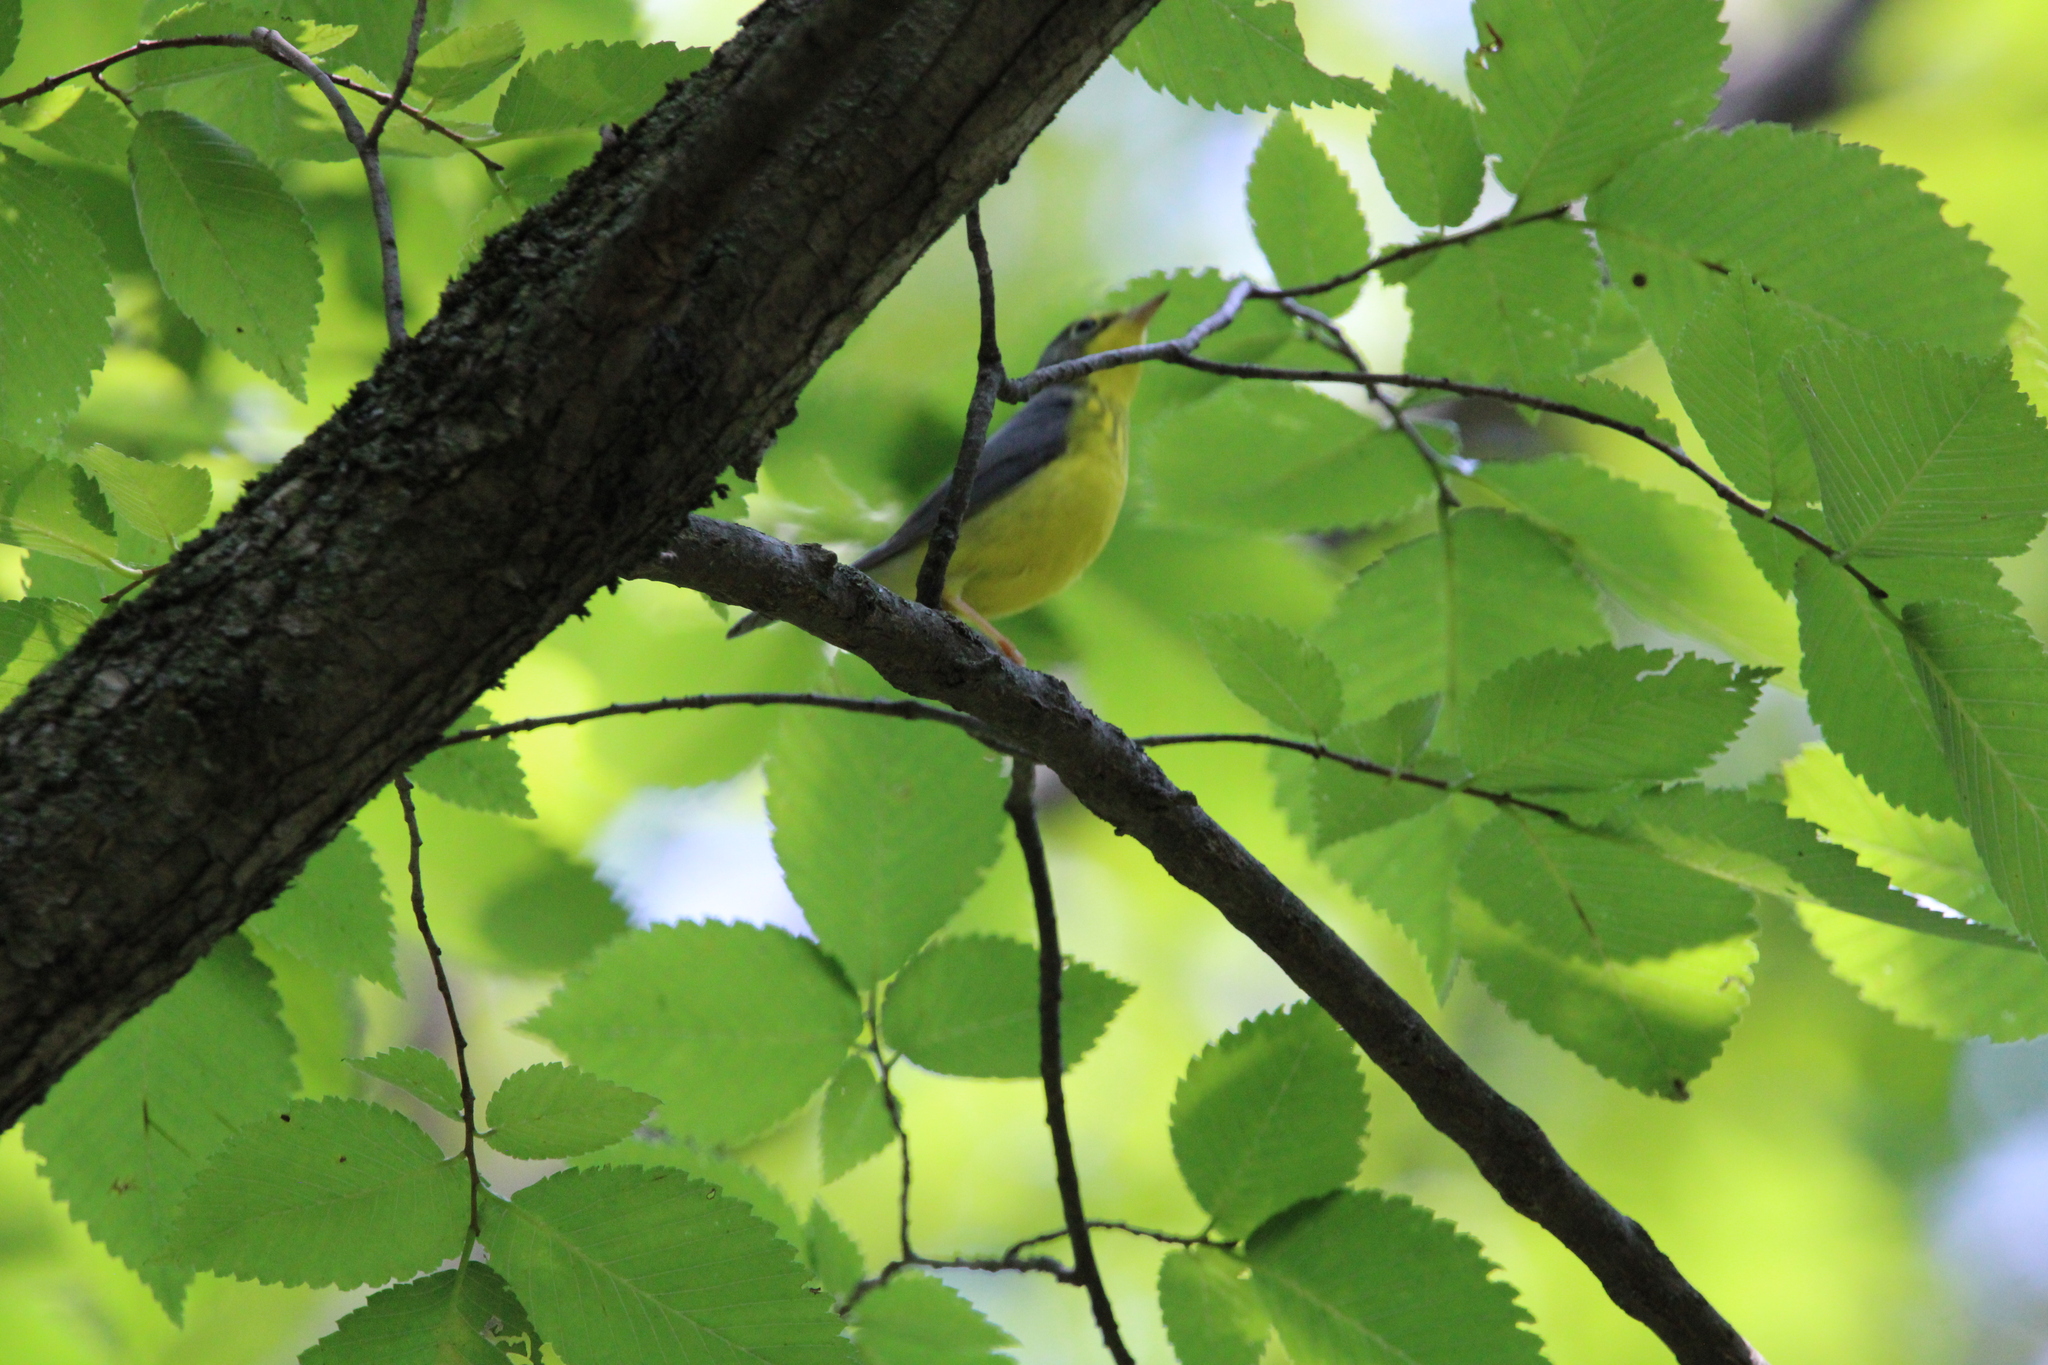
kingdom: Animalia
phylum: Chordata
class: Aves
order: Passeriformes
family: Parulidae
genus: Cardellina
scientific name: Cardellina canadensis
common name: Canada warbler
